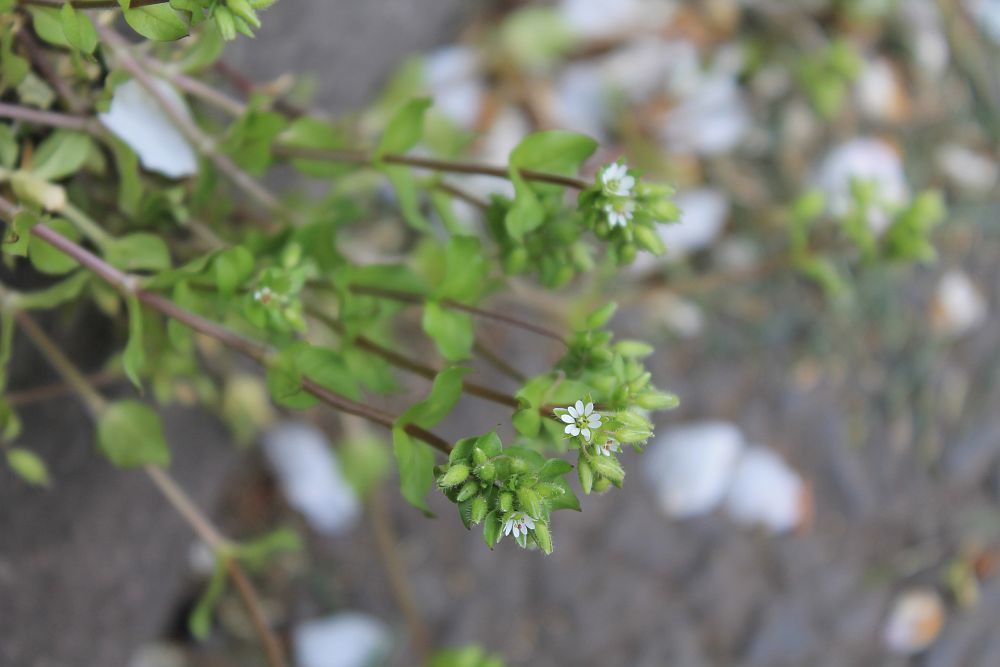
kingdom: Plantae
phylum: Tracheophyta
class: Magnoliopsida
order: Caryophyllales
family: Caryophyllaceae
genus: Stellaria
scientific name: Stellaria media
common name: Common chickweed
